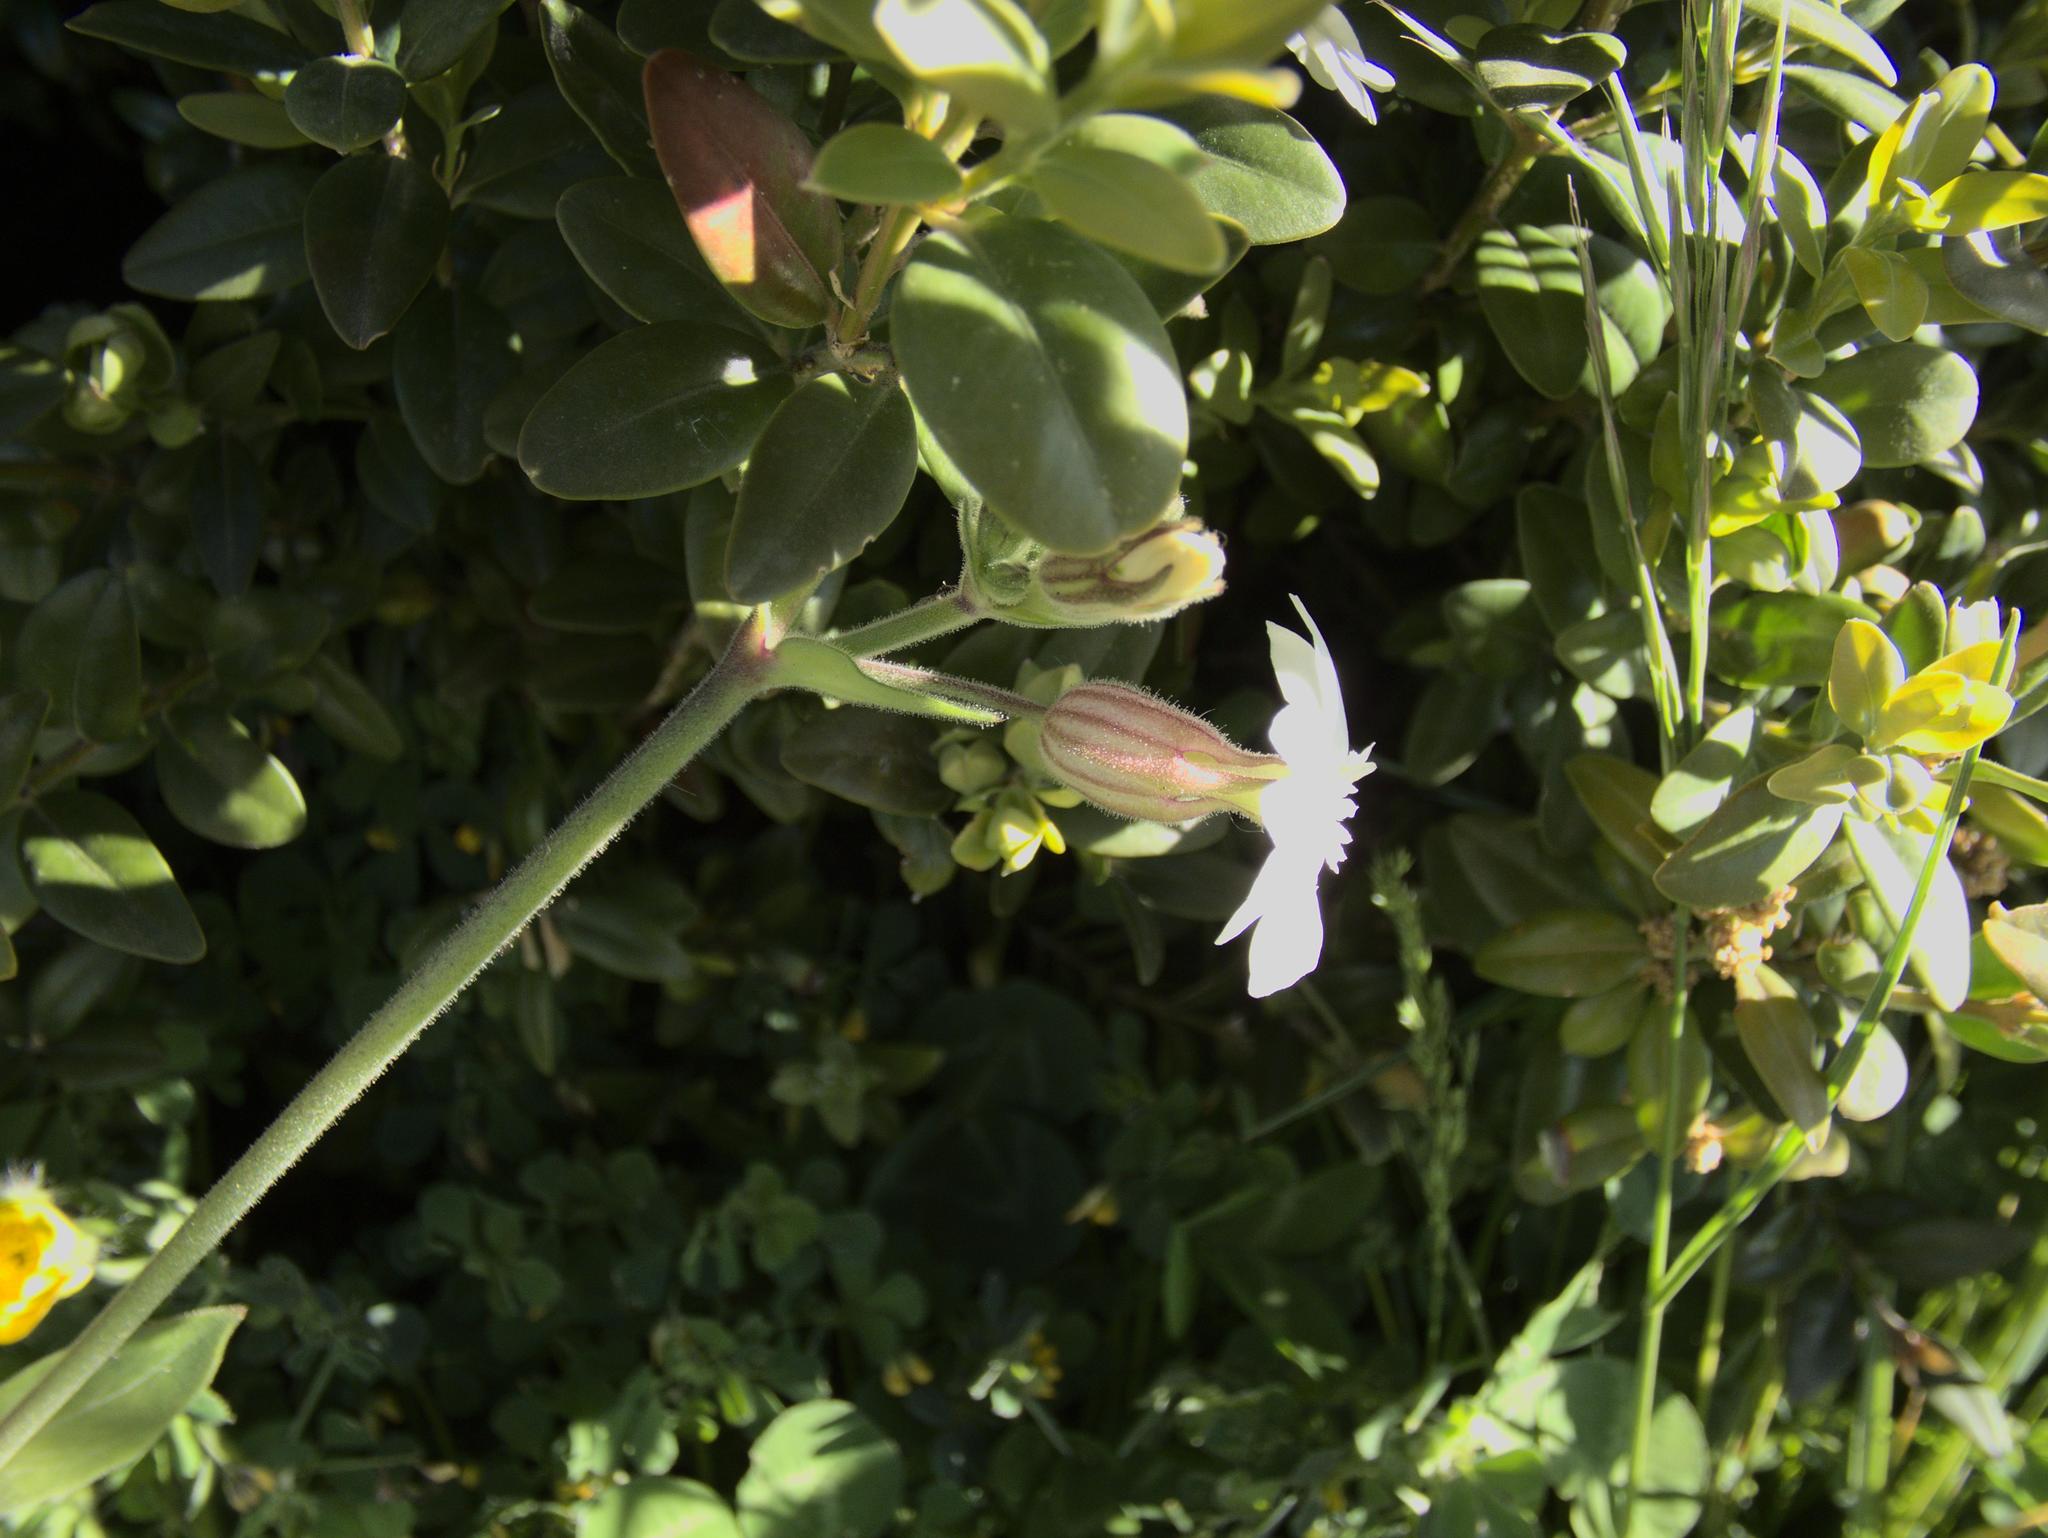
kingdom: Plantae
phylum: Tracheophyta
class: Magnoliopsida
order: Caryophyllales
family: Caryophyllaceae
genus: Silene
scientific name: Silene latifolia
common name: White campion
